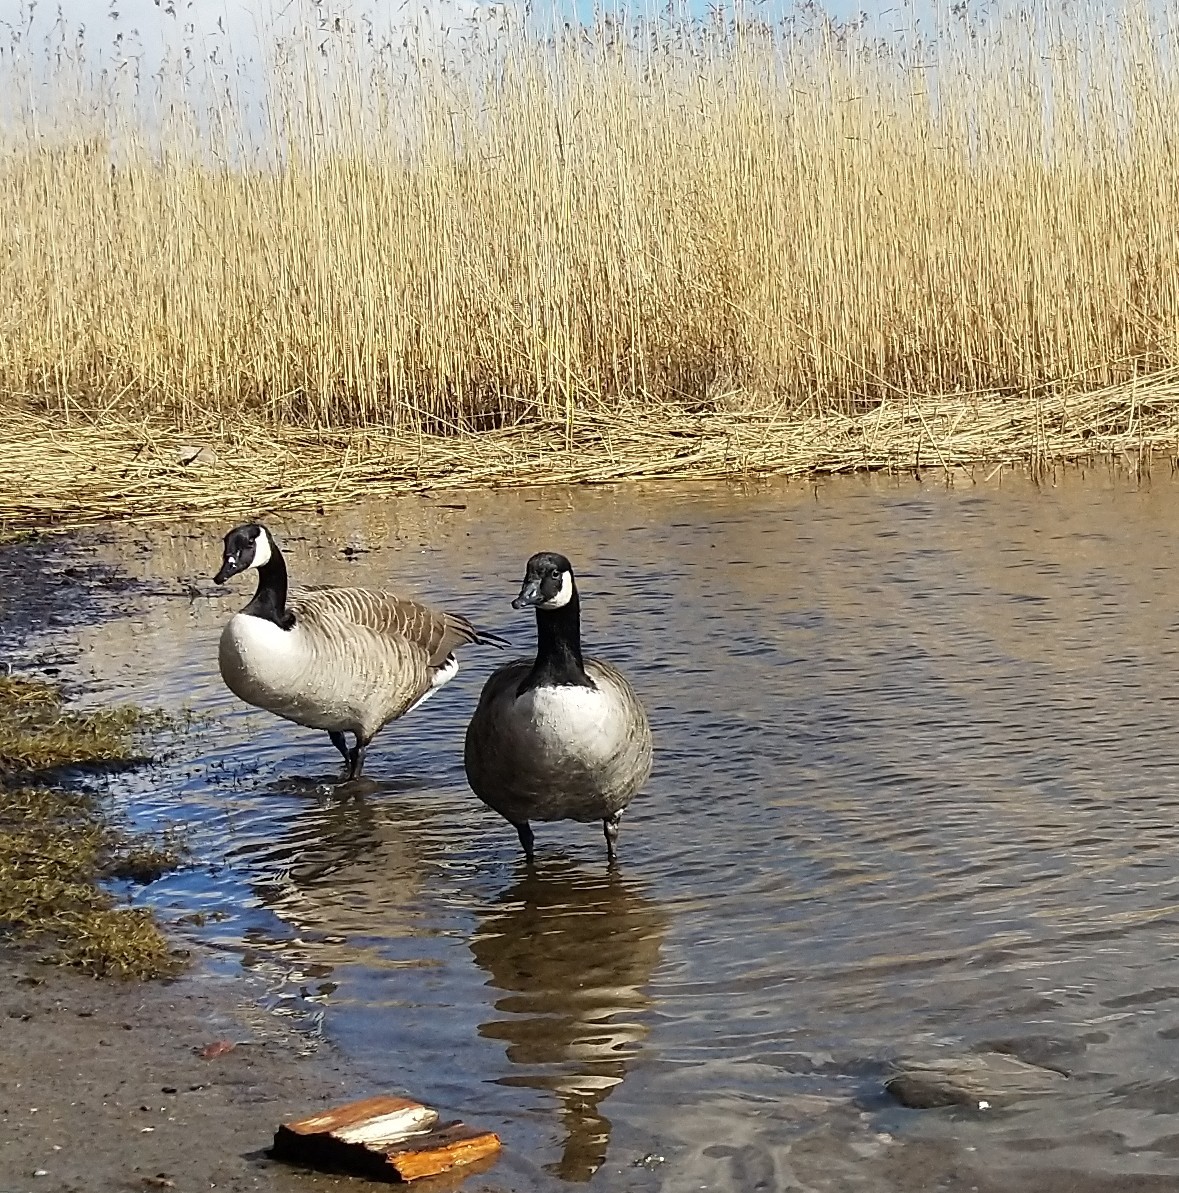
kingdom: Animalia
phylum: Chordata
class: Aves
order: Anseriformes
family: Anatidae
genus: Branta
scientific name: Branta canadensis
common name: Canada goose
